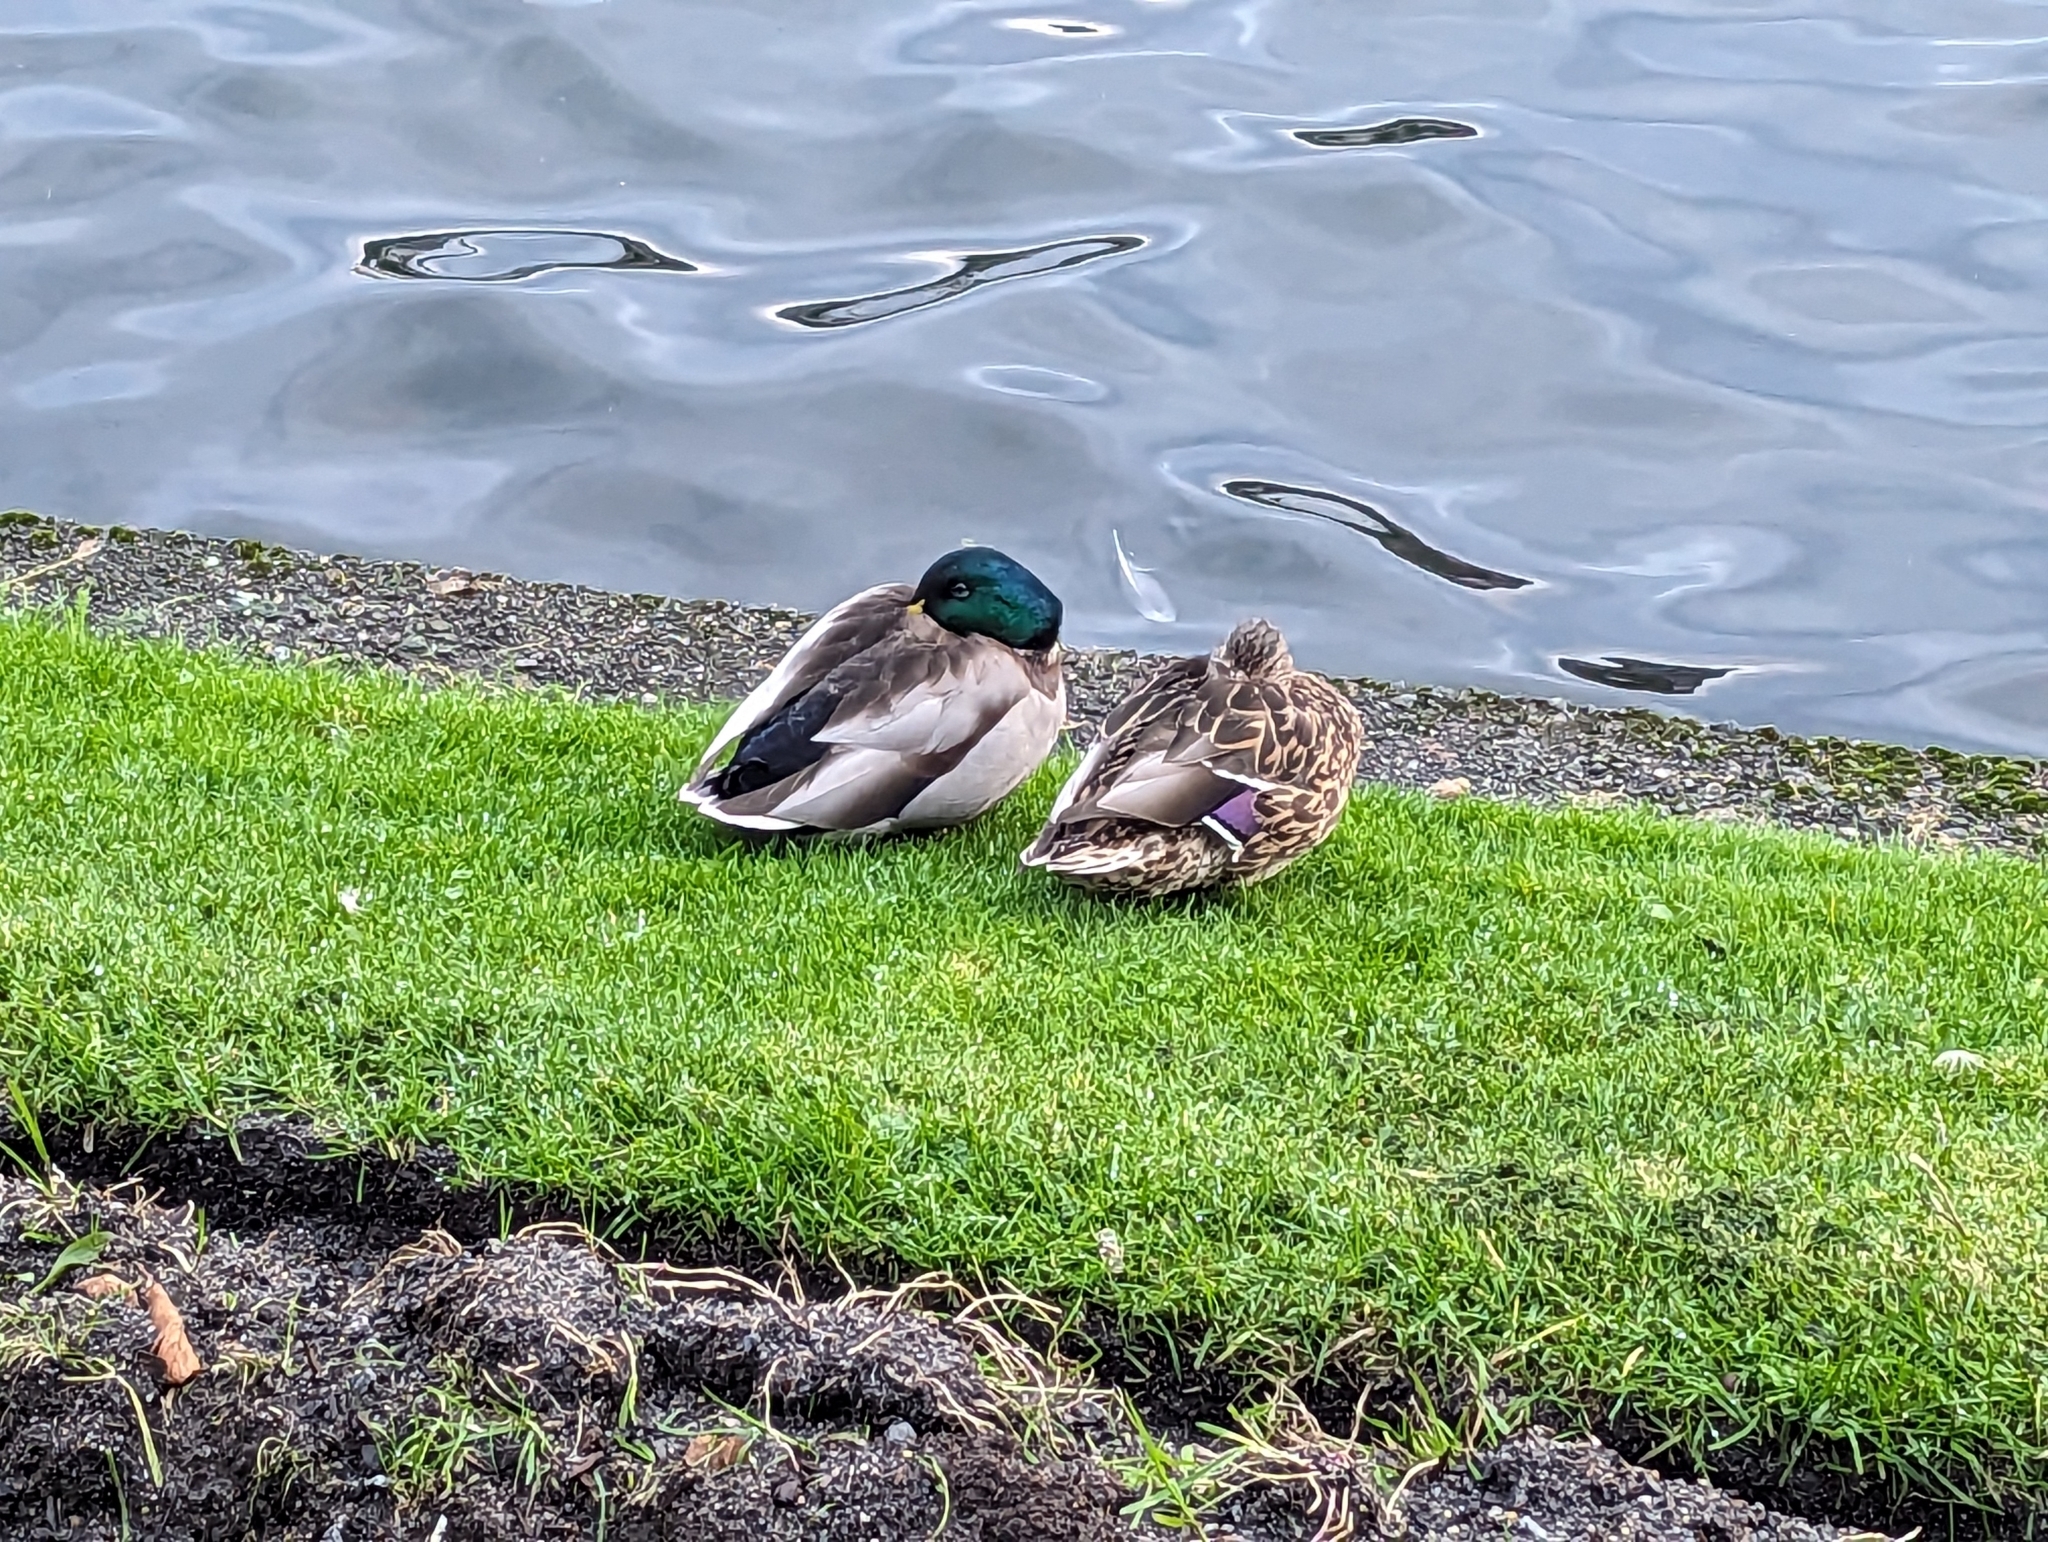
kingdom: Animalia
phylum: Chordata
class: Aves
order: Anseriformes
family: Anatidae
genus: Anas
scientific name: Anas platyrhynchos
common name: Mallard
